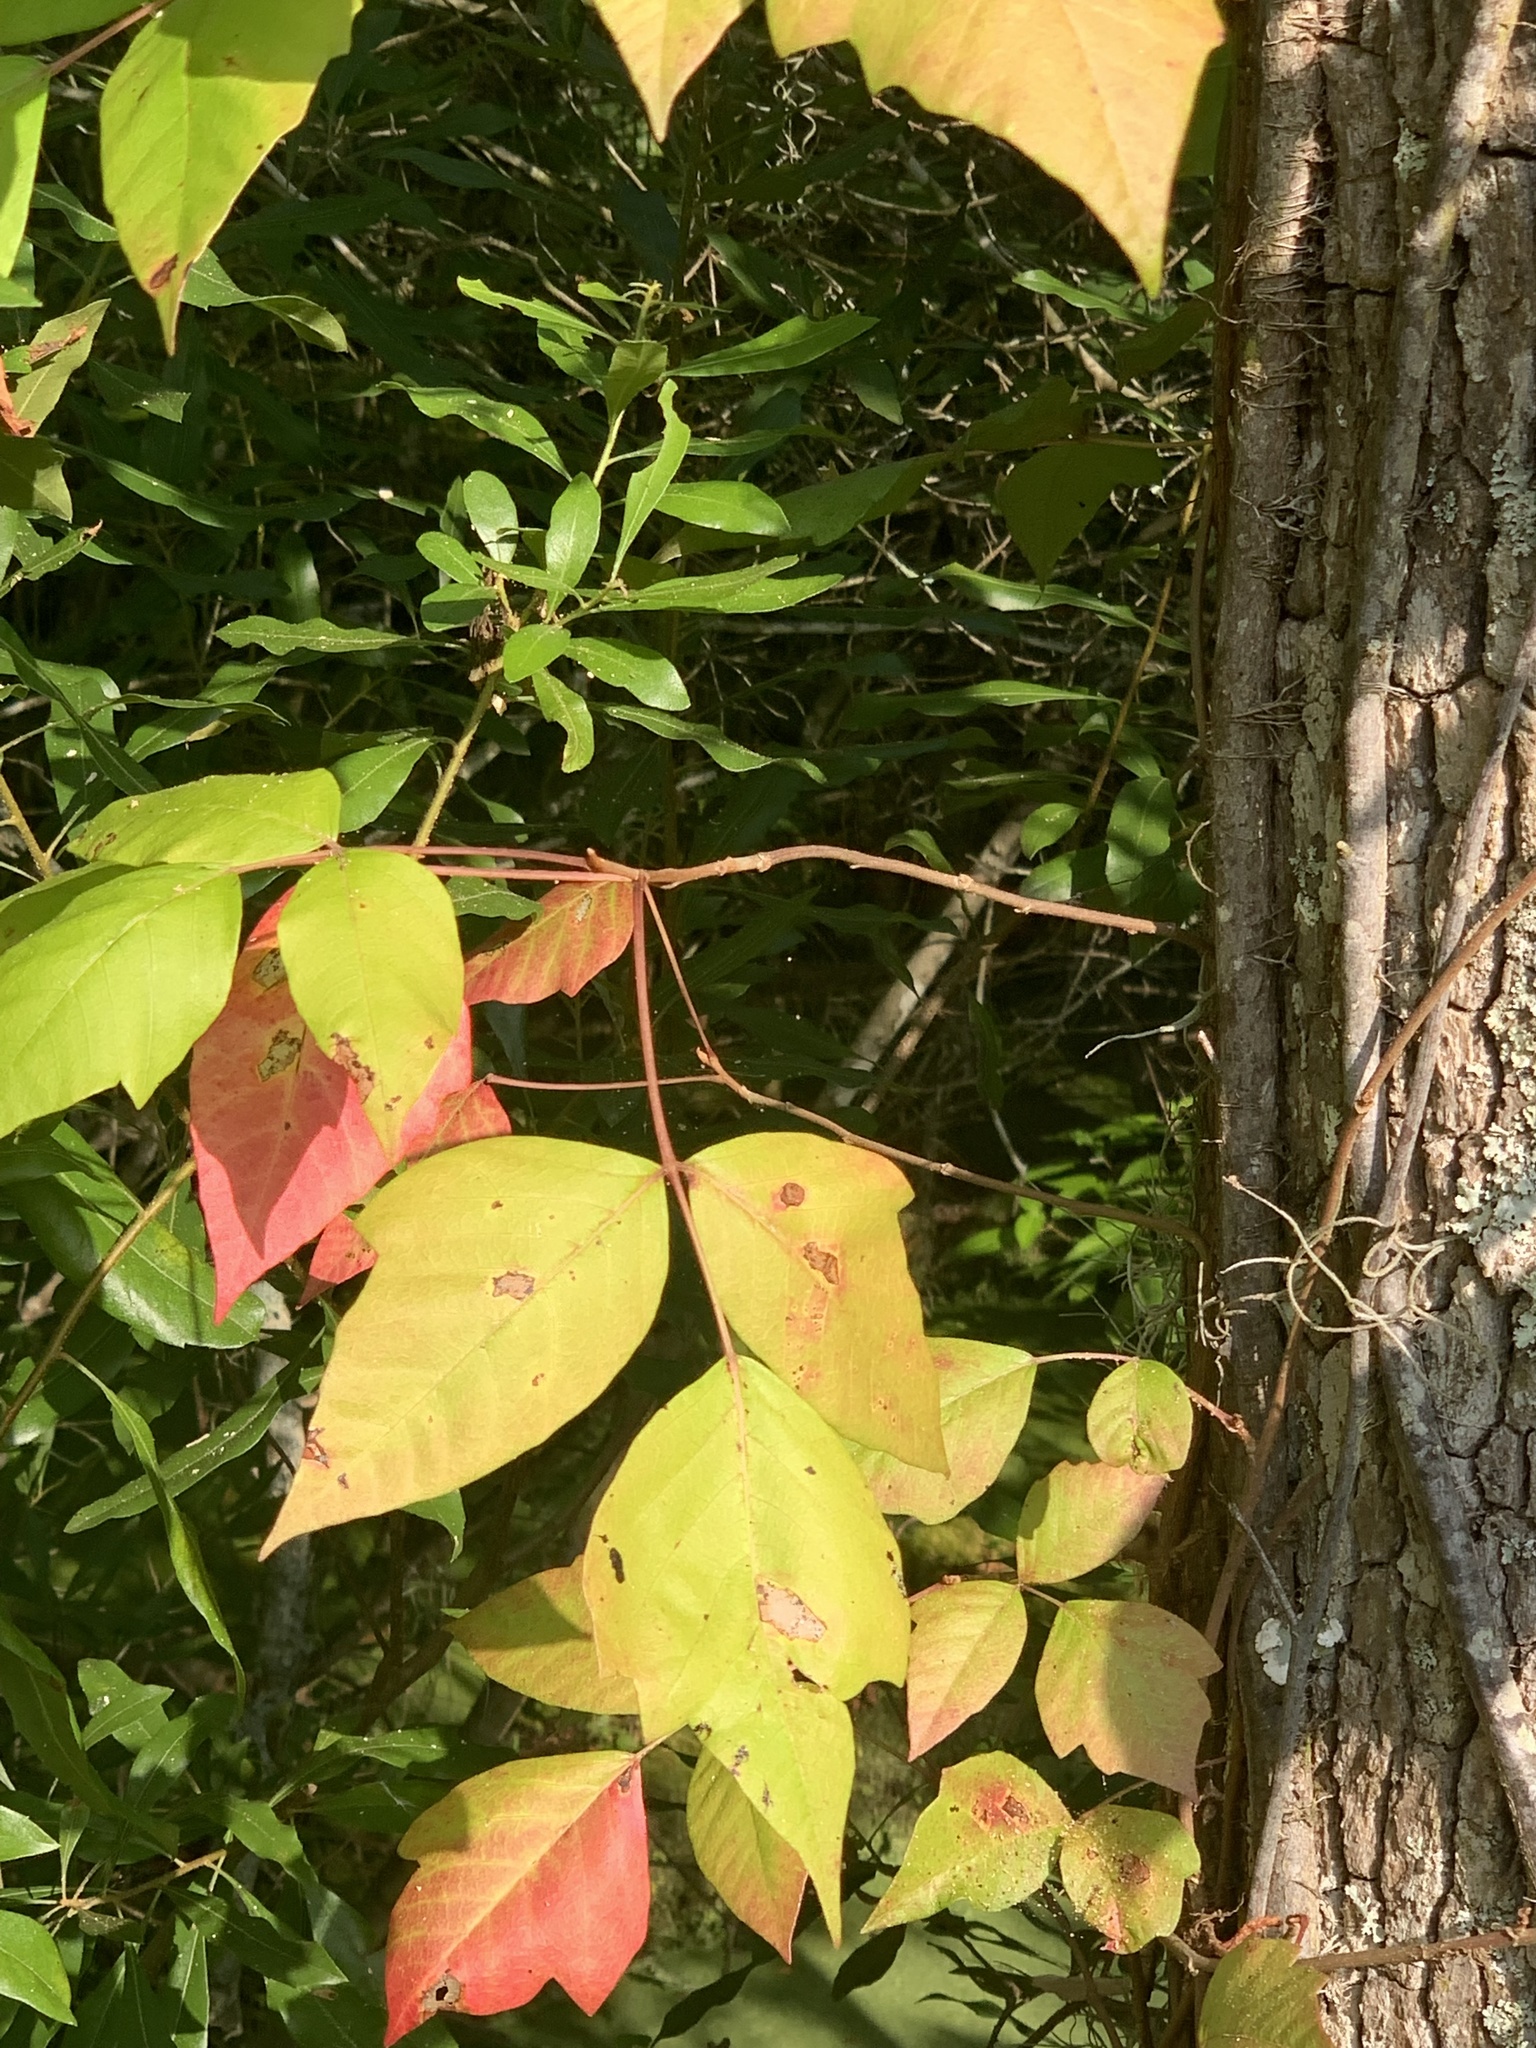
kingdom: Plantae
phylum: Tracheophyta
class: Magnoliopsida
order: Sapindales
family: Anacardiaceae
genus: Toxicodendron
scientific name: Toxicodendron radicans
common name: Poison ivy
